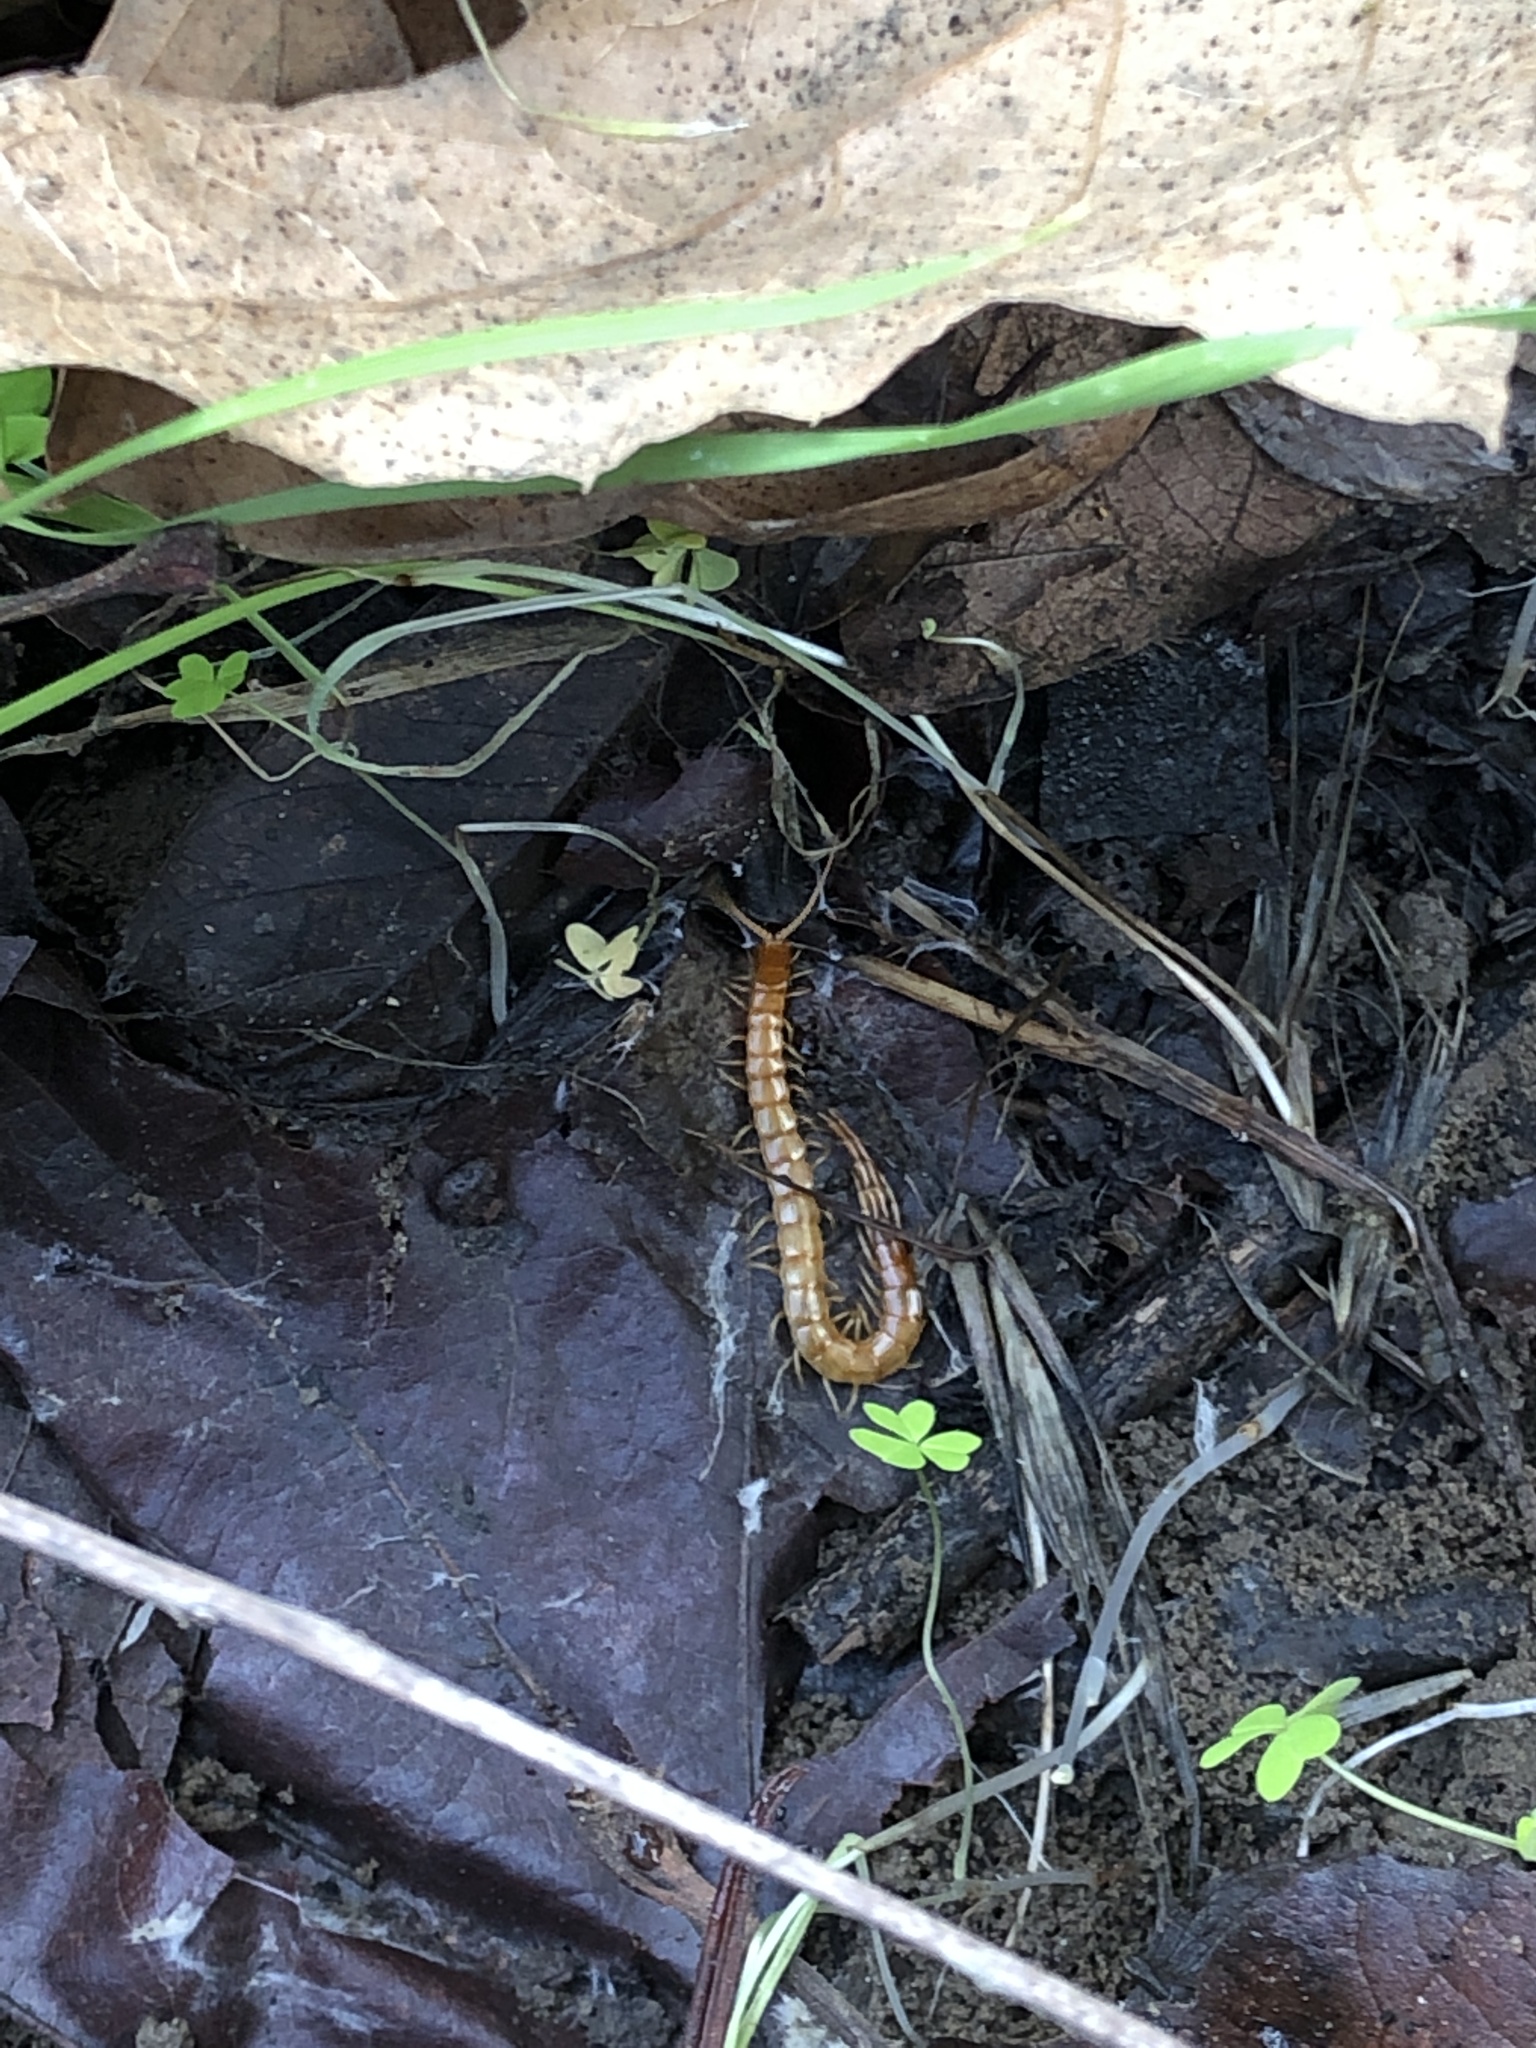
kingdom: Animalia
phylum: Arthropoda
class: Chilopoda
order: Scolopendromorpha
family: Scolopocryptopidae
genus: Scolopocryptops
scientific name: Scolopocryptops
